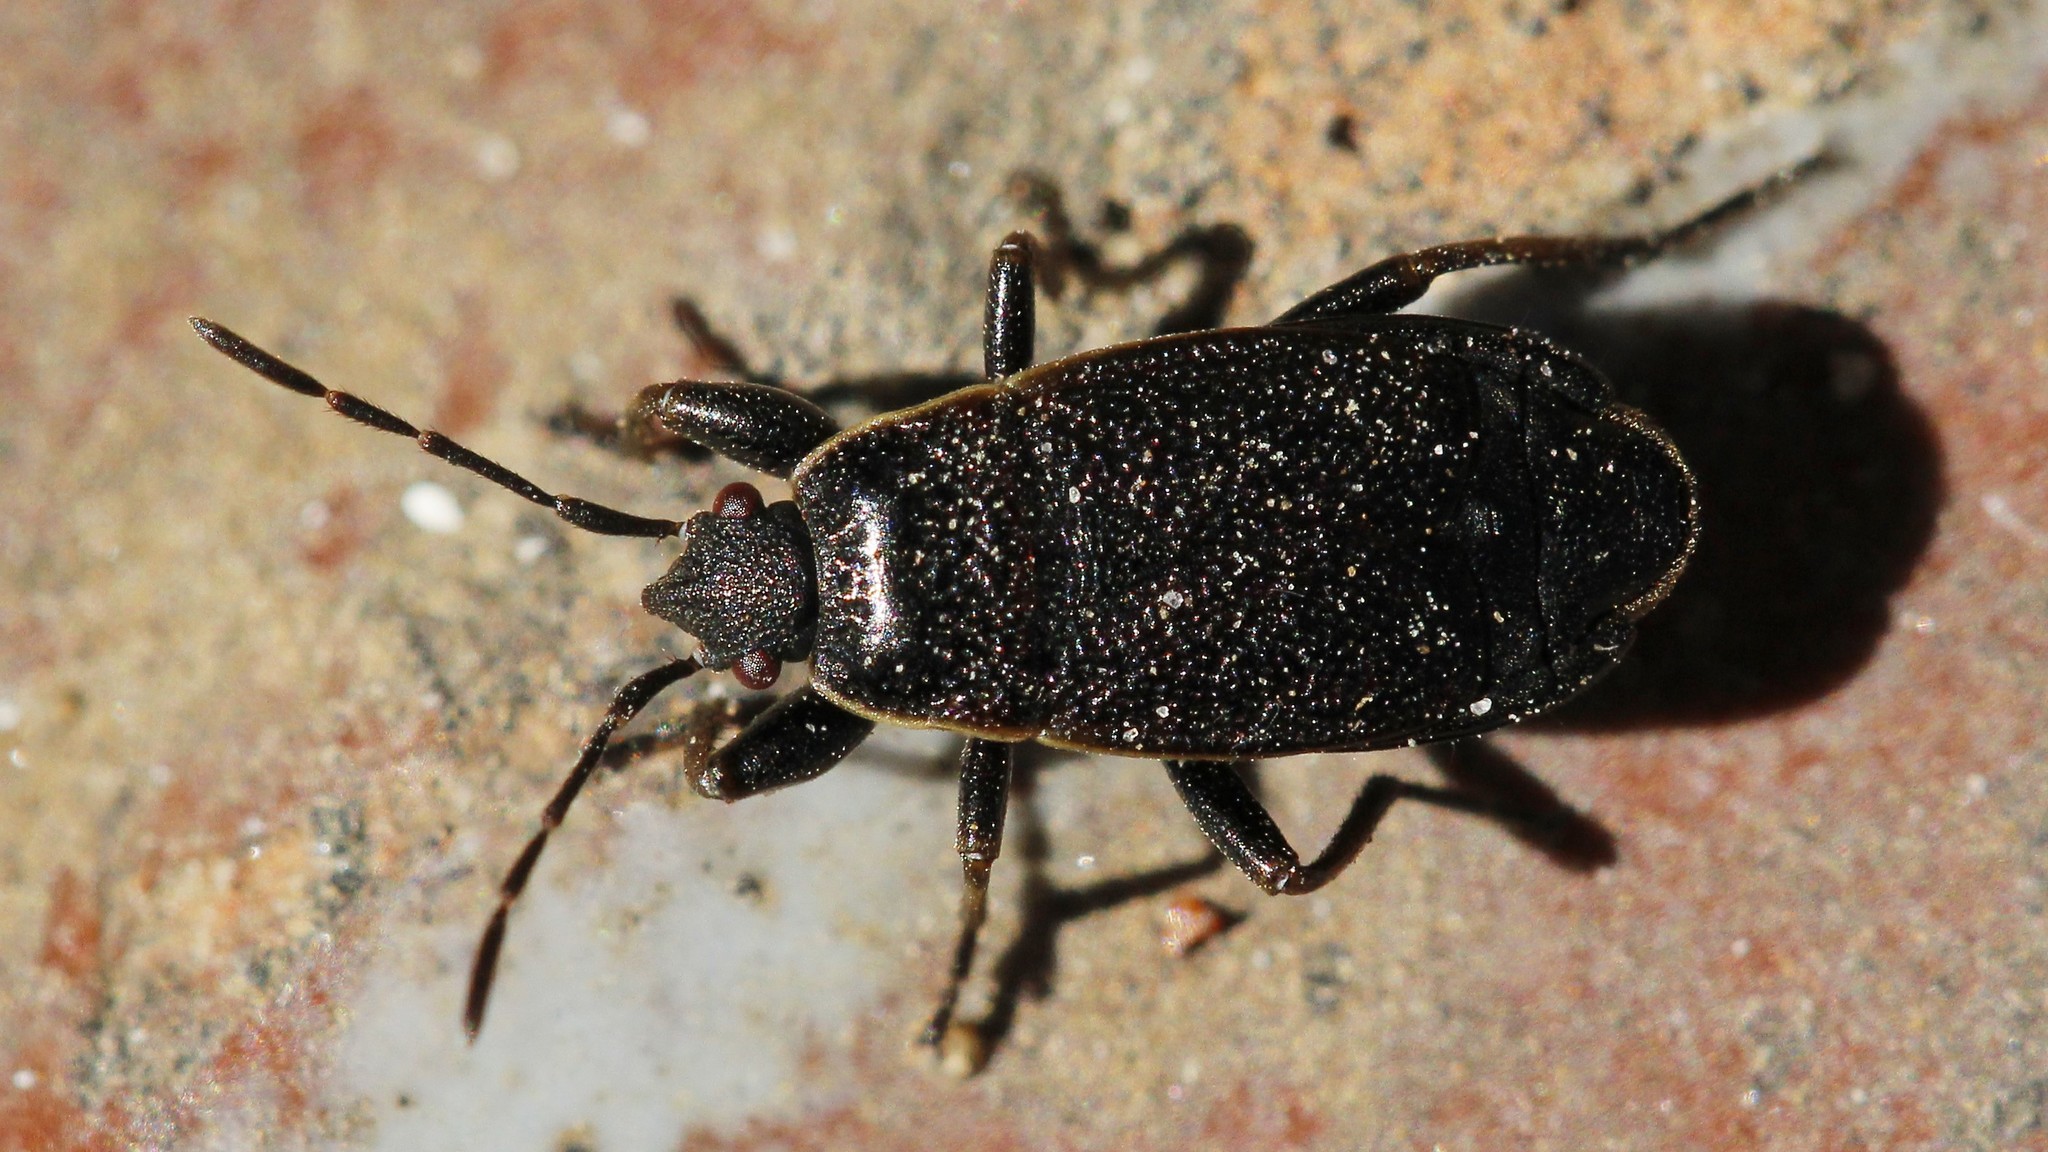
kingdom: Animalia
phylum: Arthropoda
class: Insecta
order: Hemiptera
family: Pyrrhocoridae
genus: Pyrrhocoris
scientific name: Pyrrhocoris marginatus
